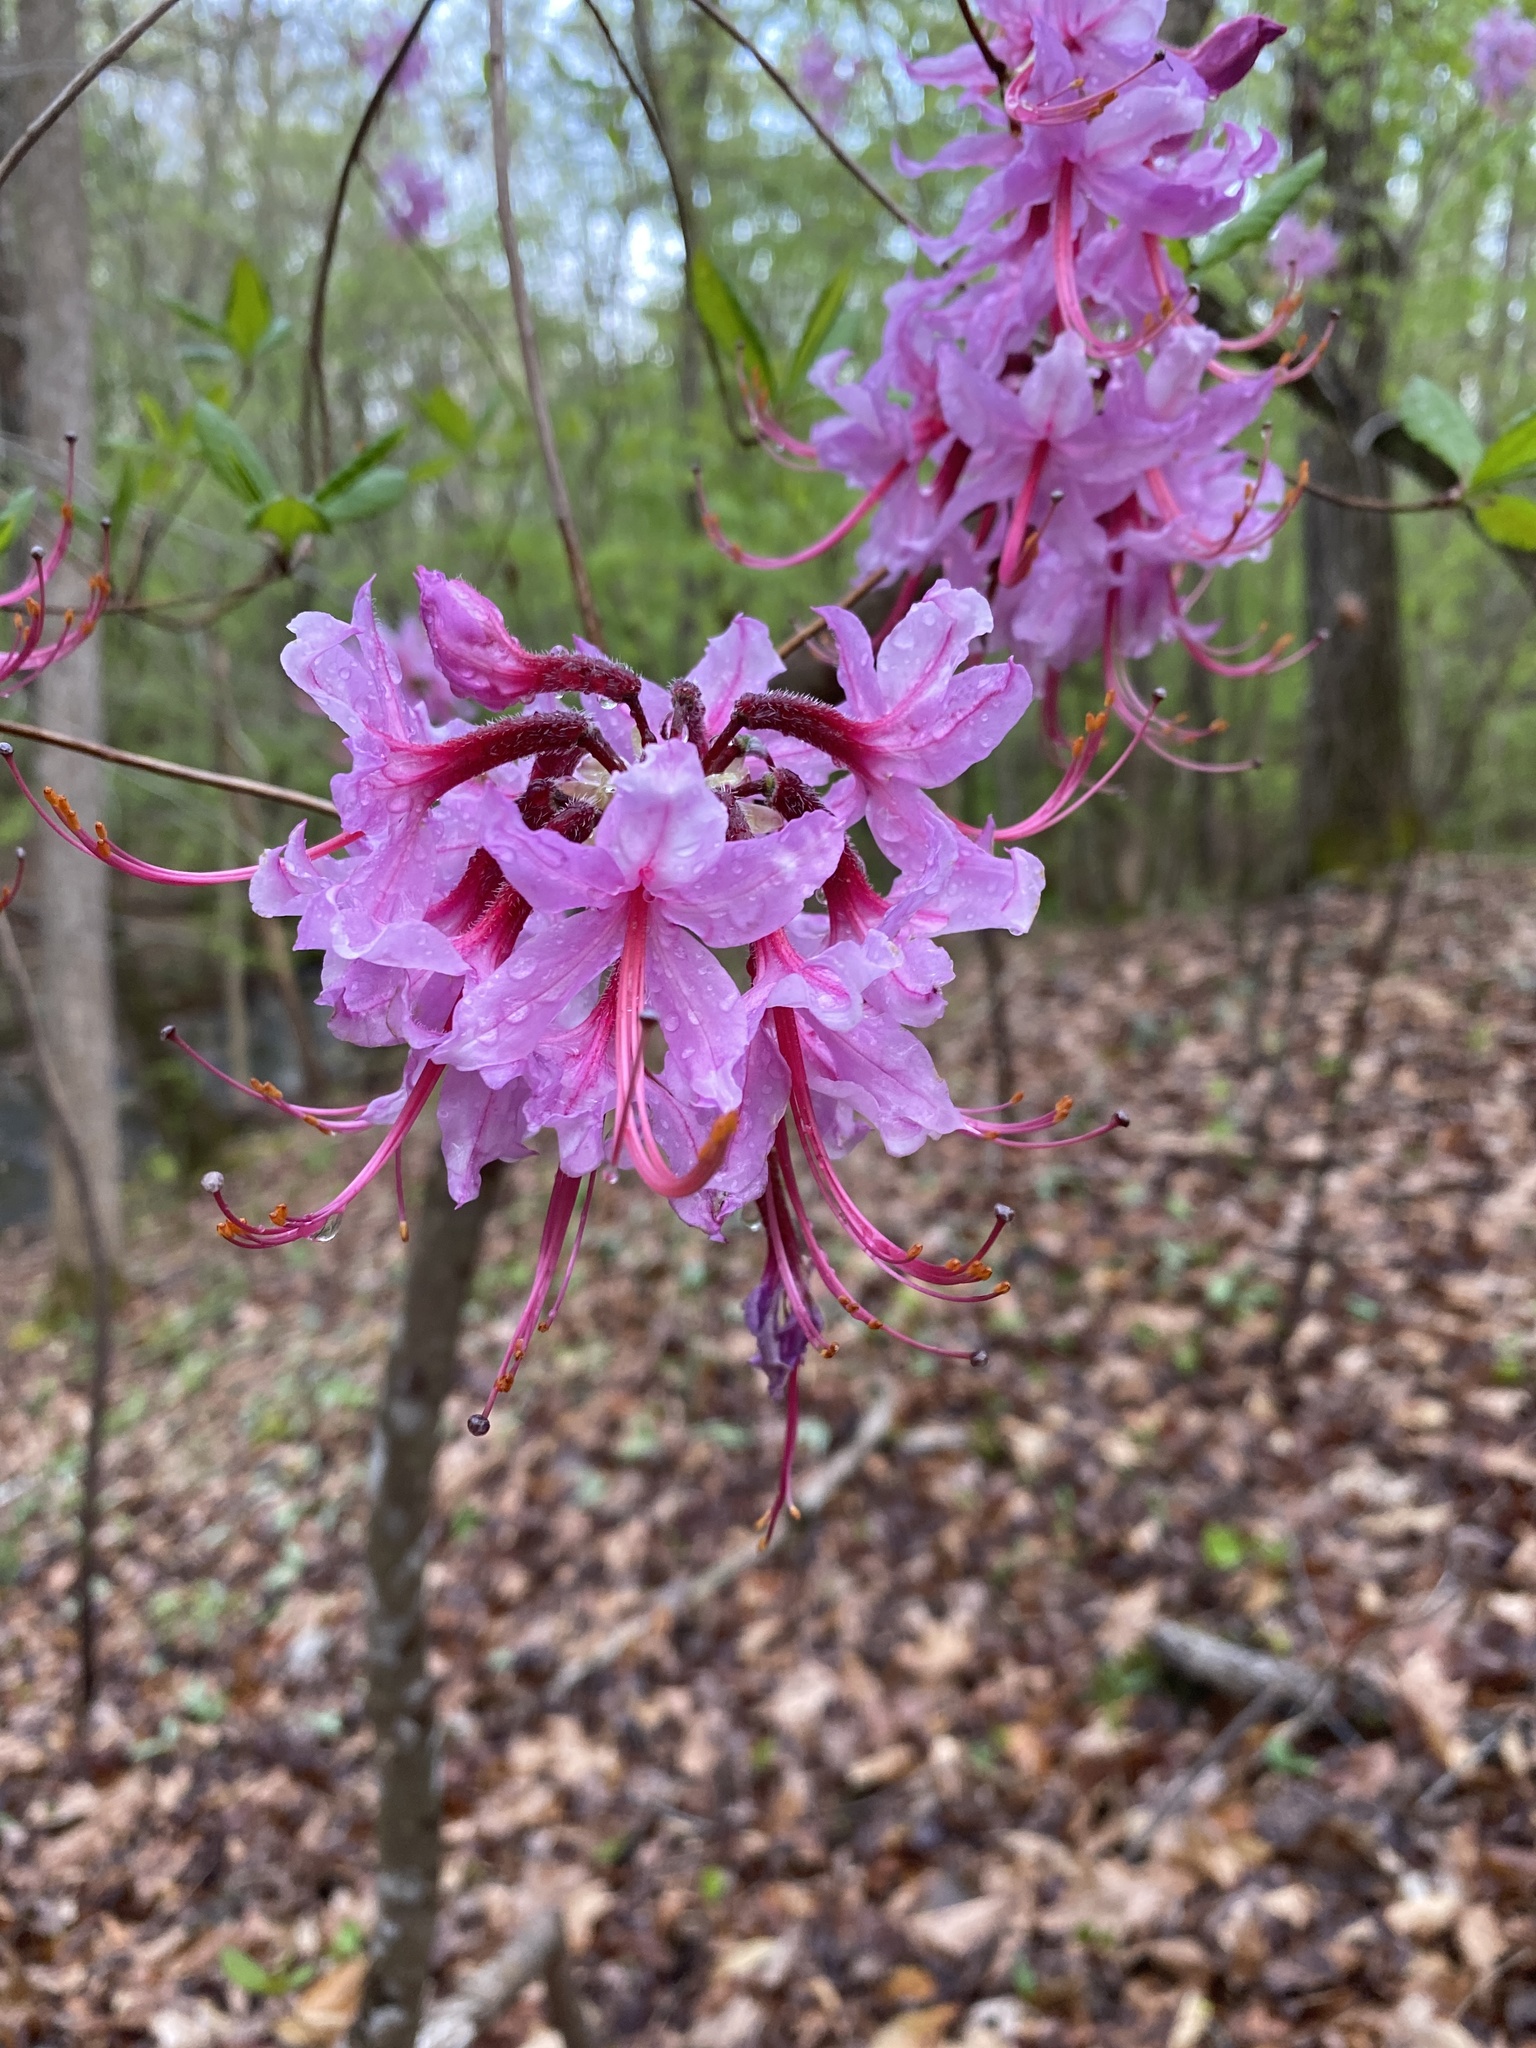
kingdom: Plantae
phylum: Tracheophyta
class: Magnoliopsida
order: Ericales
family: Ericaceae
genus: Rhododendron
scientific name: Rhododendron periclymenoides
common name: Election-pink
